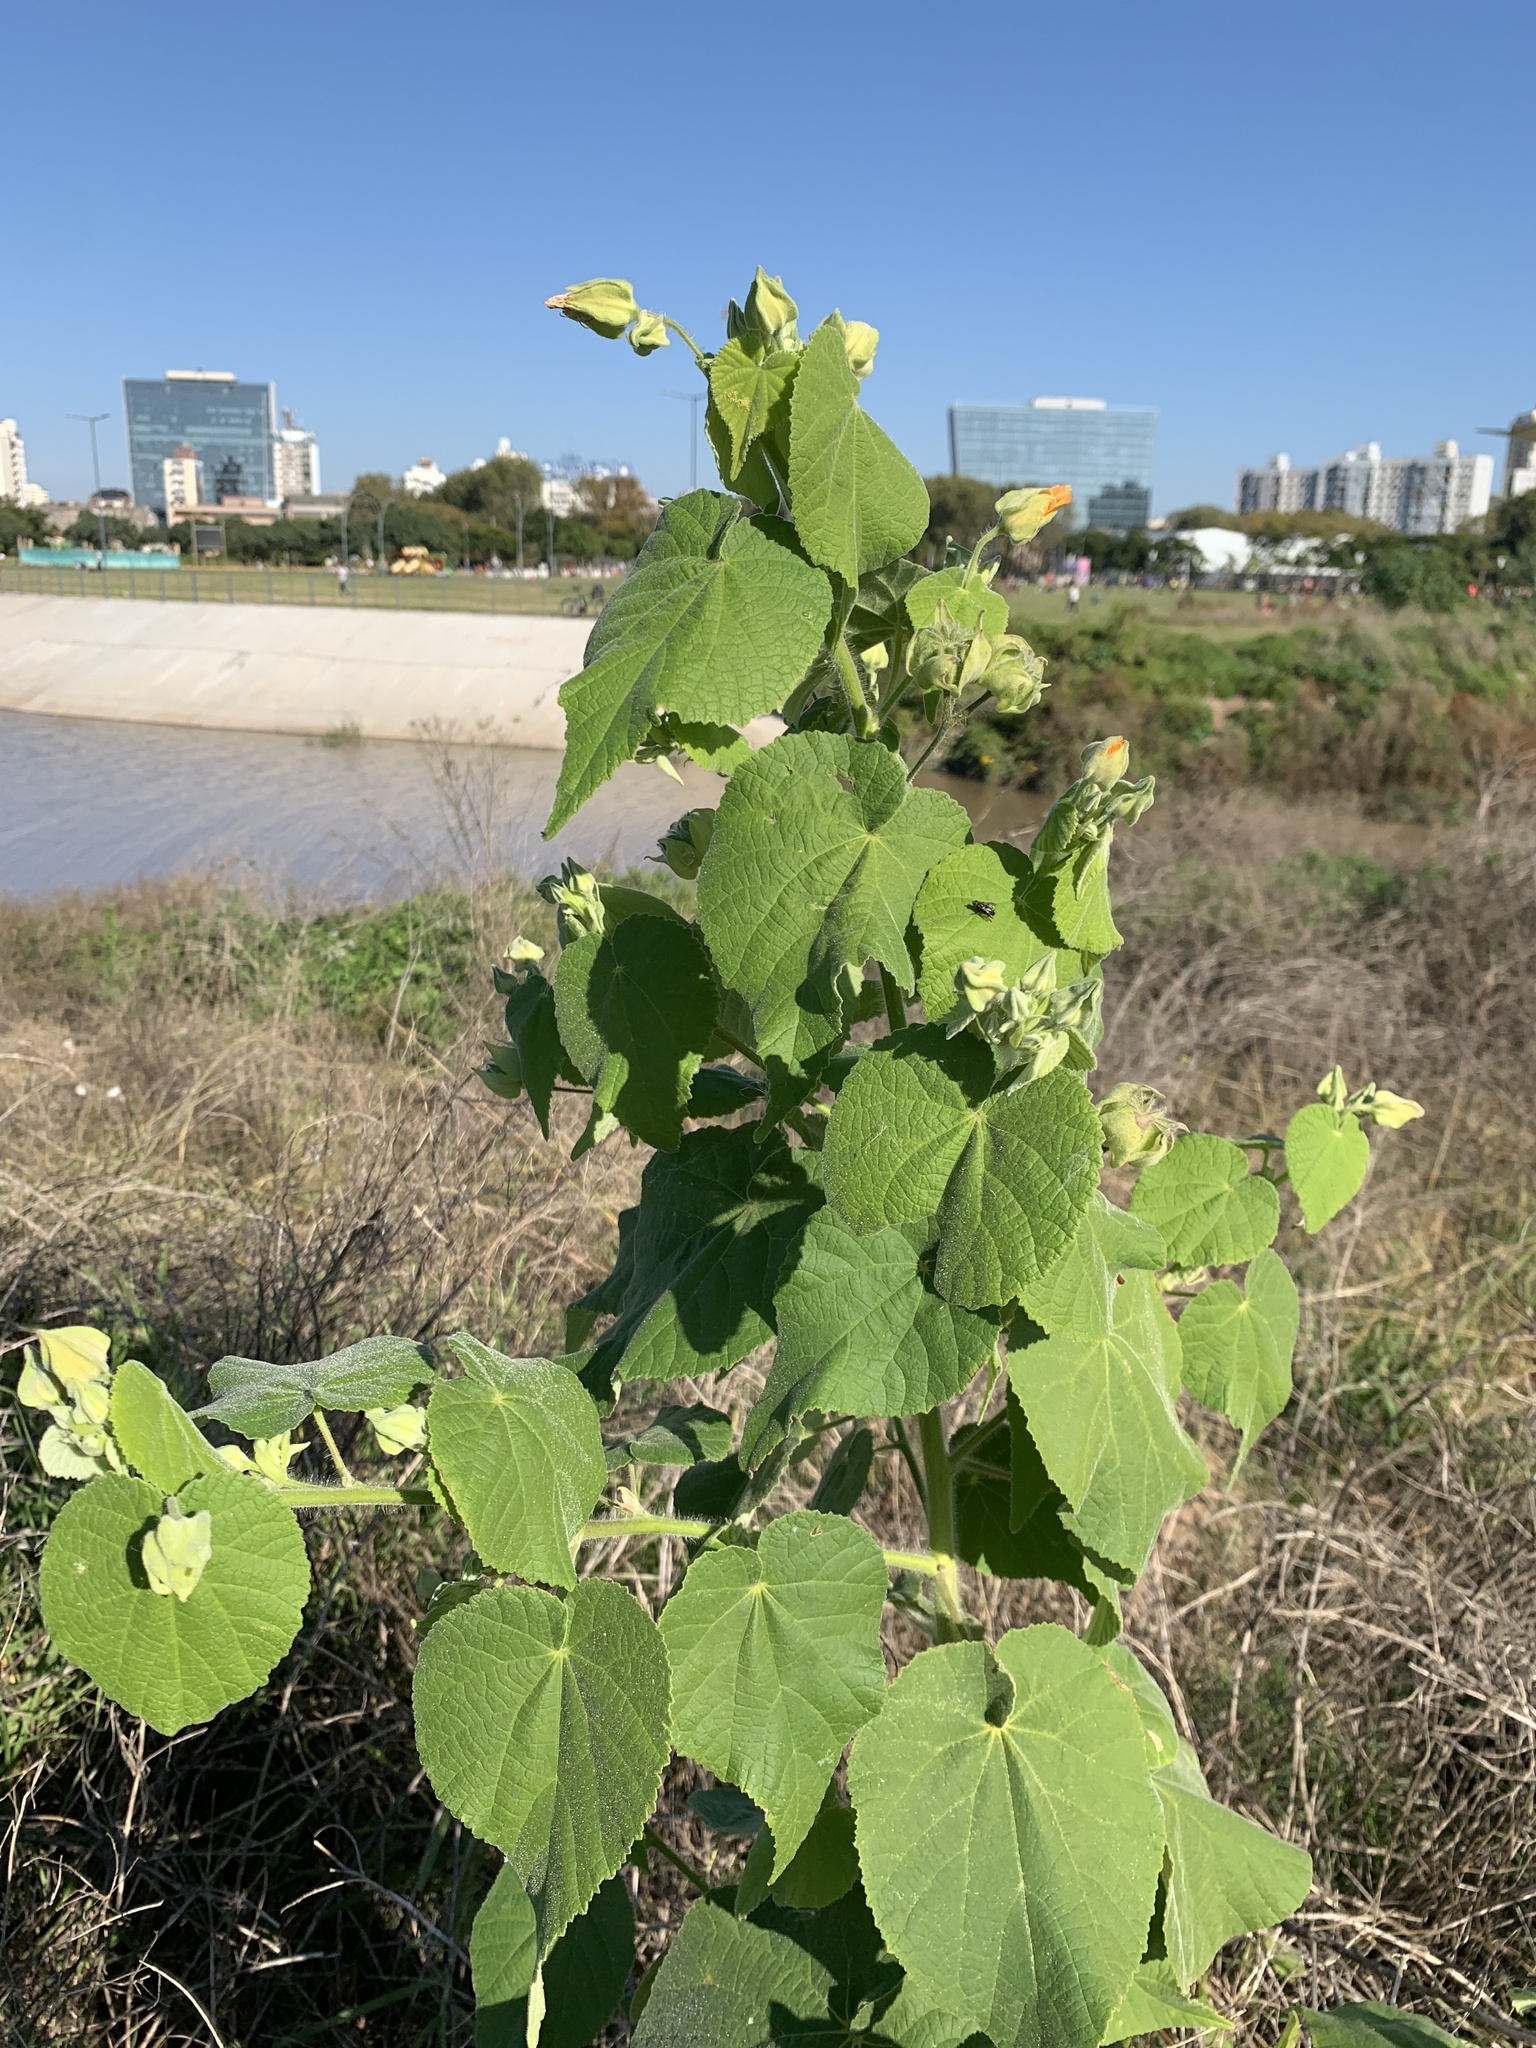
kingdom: Plantae
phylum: Tracheophyta
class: Magnoliopsida
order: Malvales
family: Malvaceae
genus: Abutilon
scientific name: Abutilon grandifolium
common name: Hairy abutilon
